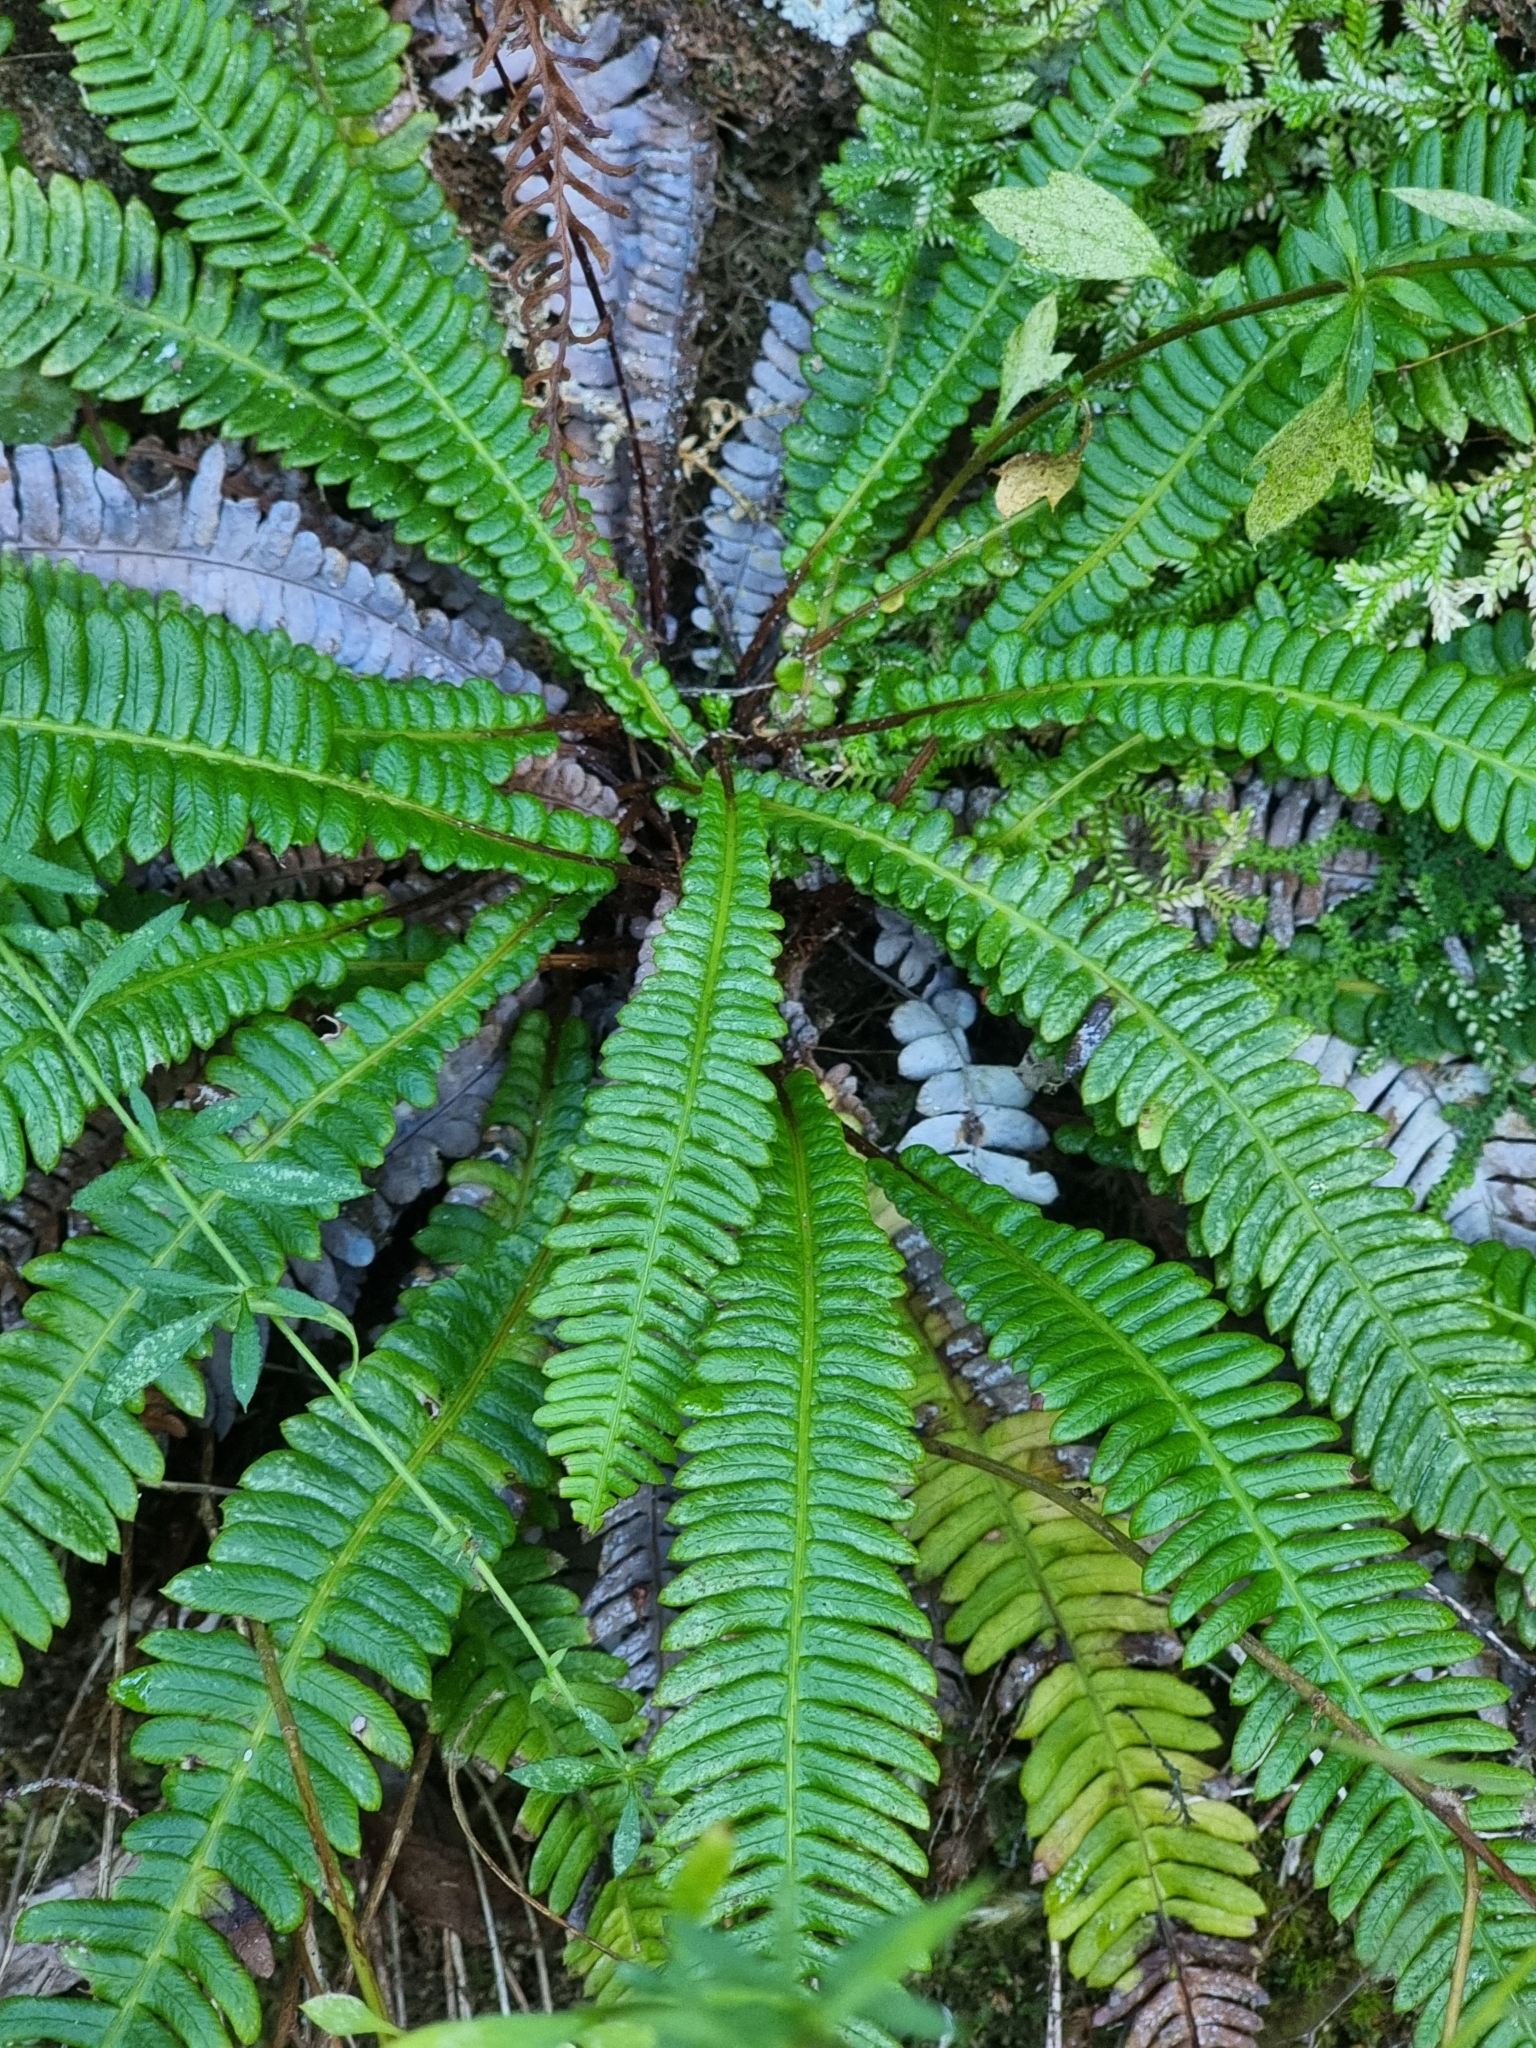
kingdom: Plantae
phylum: Tracheophyta
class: Polypodiopsida
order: Polypodiales
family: Blechnaceae
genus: Struthiopteris
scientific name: Struthiopteris spicant
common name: Deer fern
